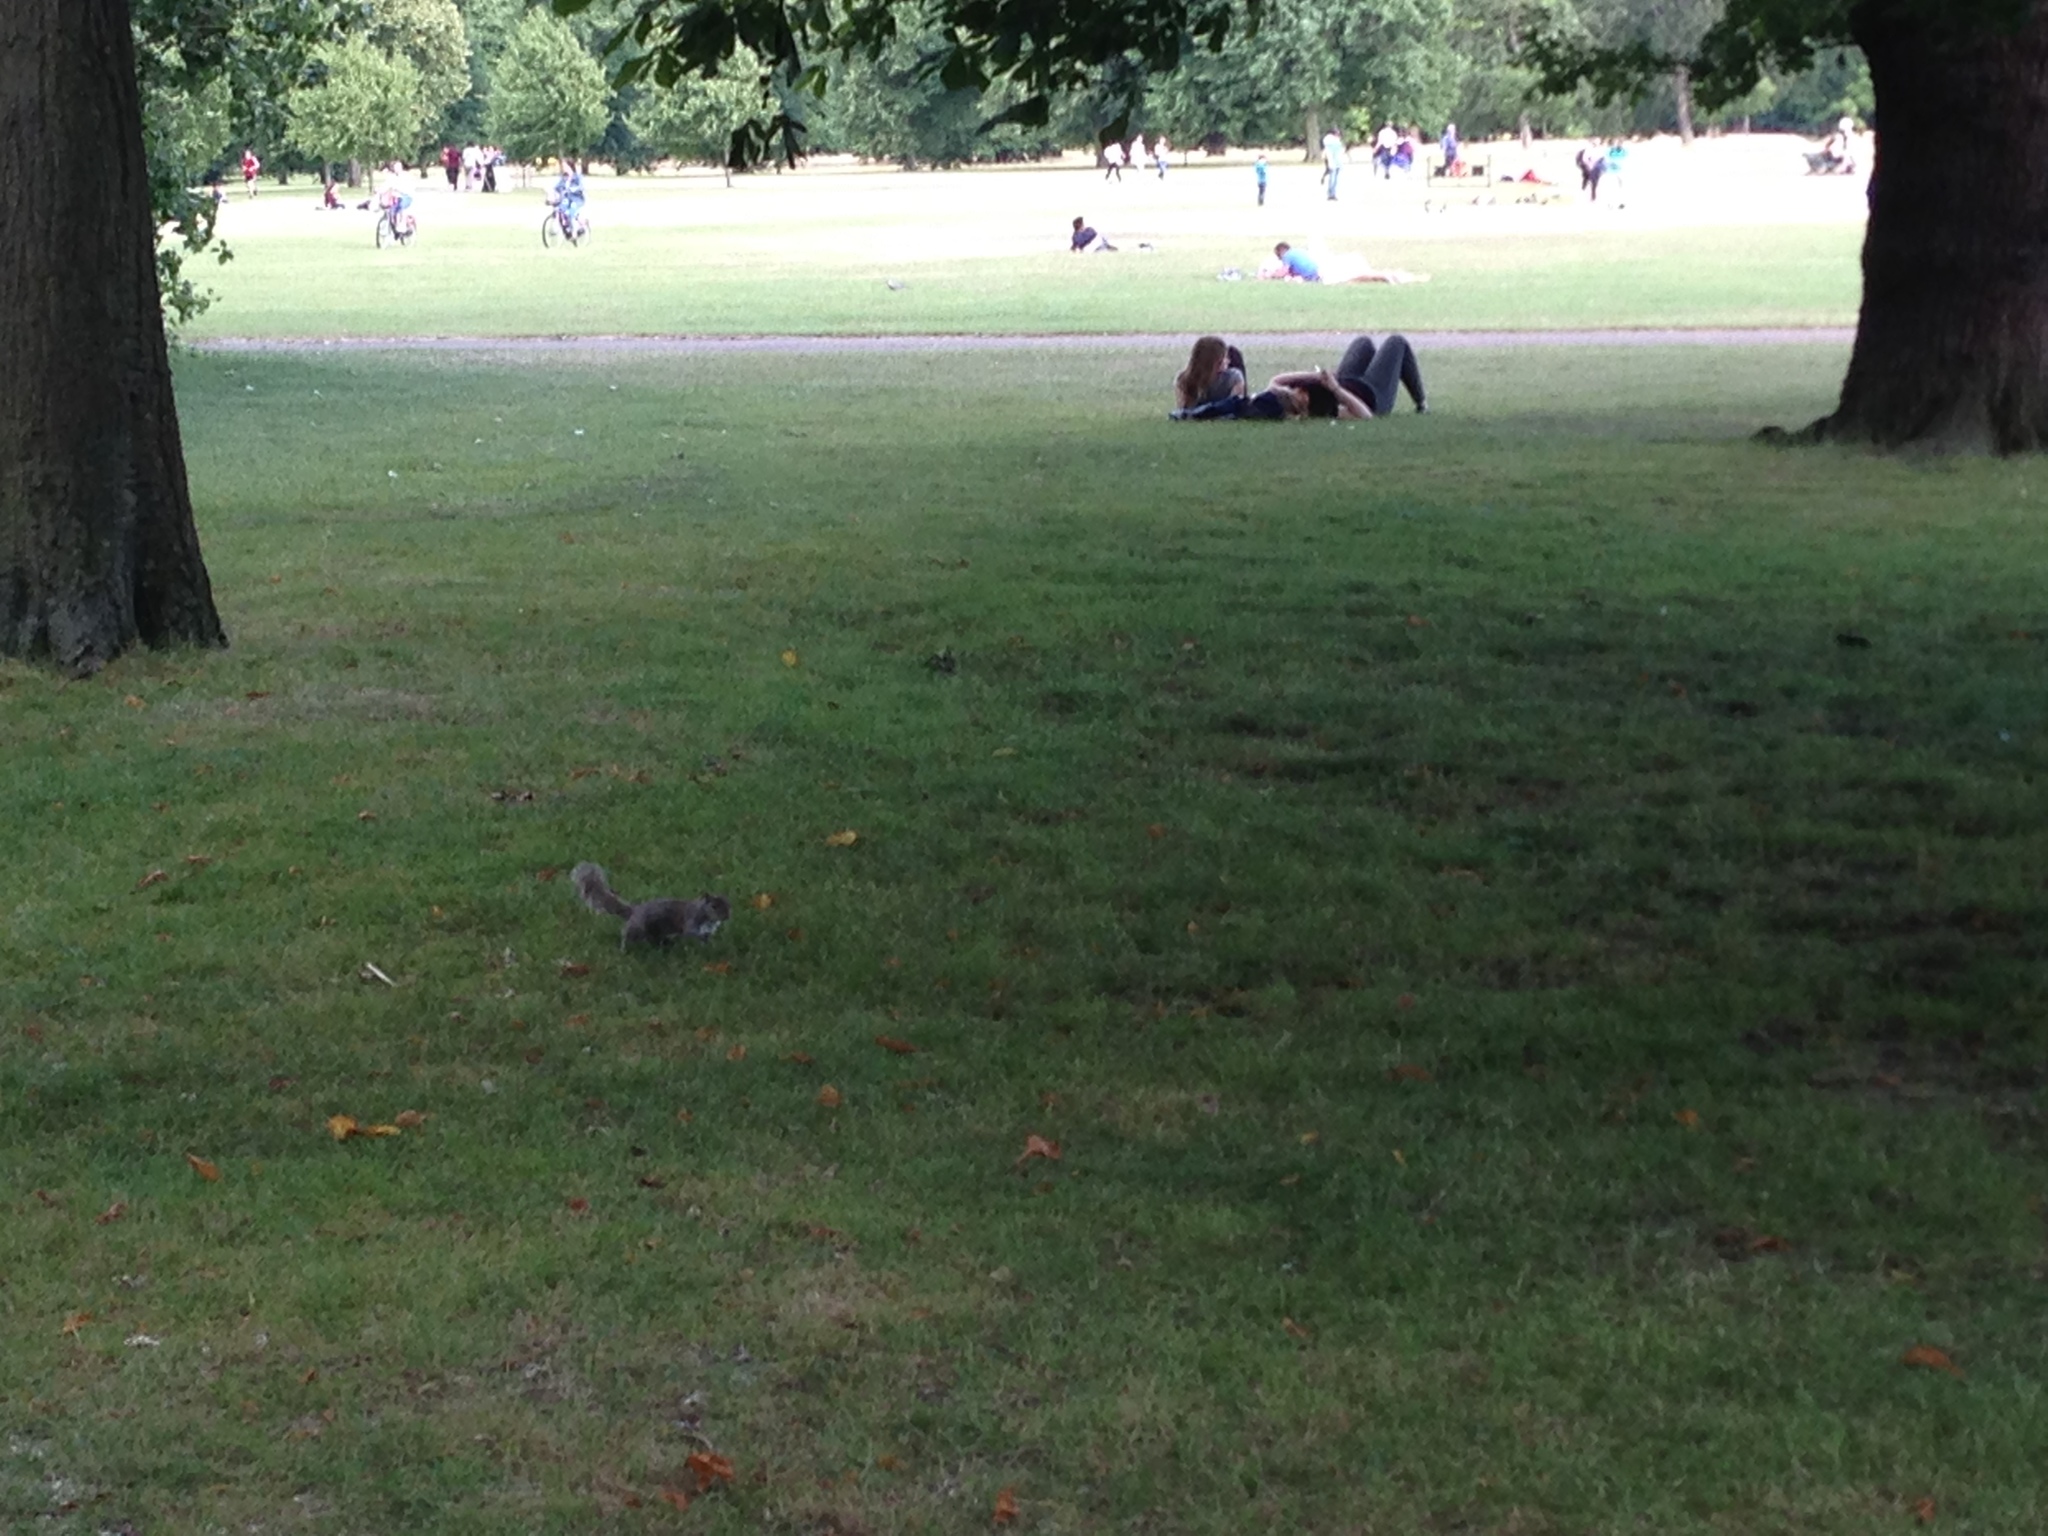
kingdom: Animalia
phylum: Chordata
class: Mammalia
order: Rodentia
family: Sciuridae
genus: Sciurus
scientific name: Sciurus carolinensis
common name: Eastern gray squirrel
